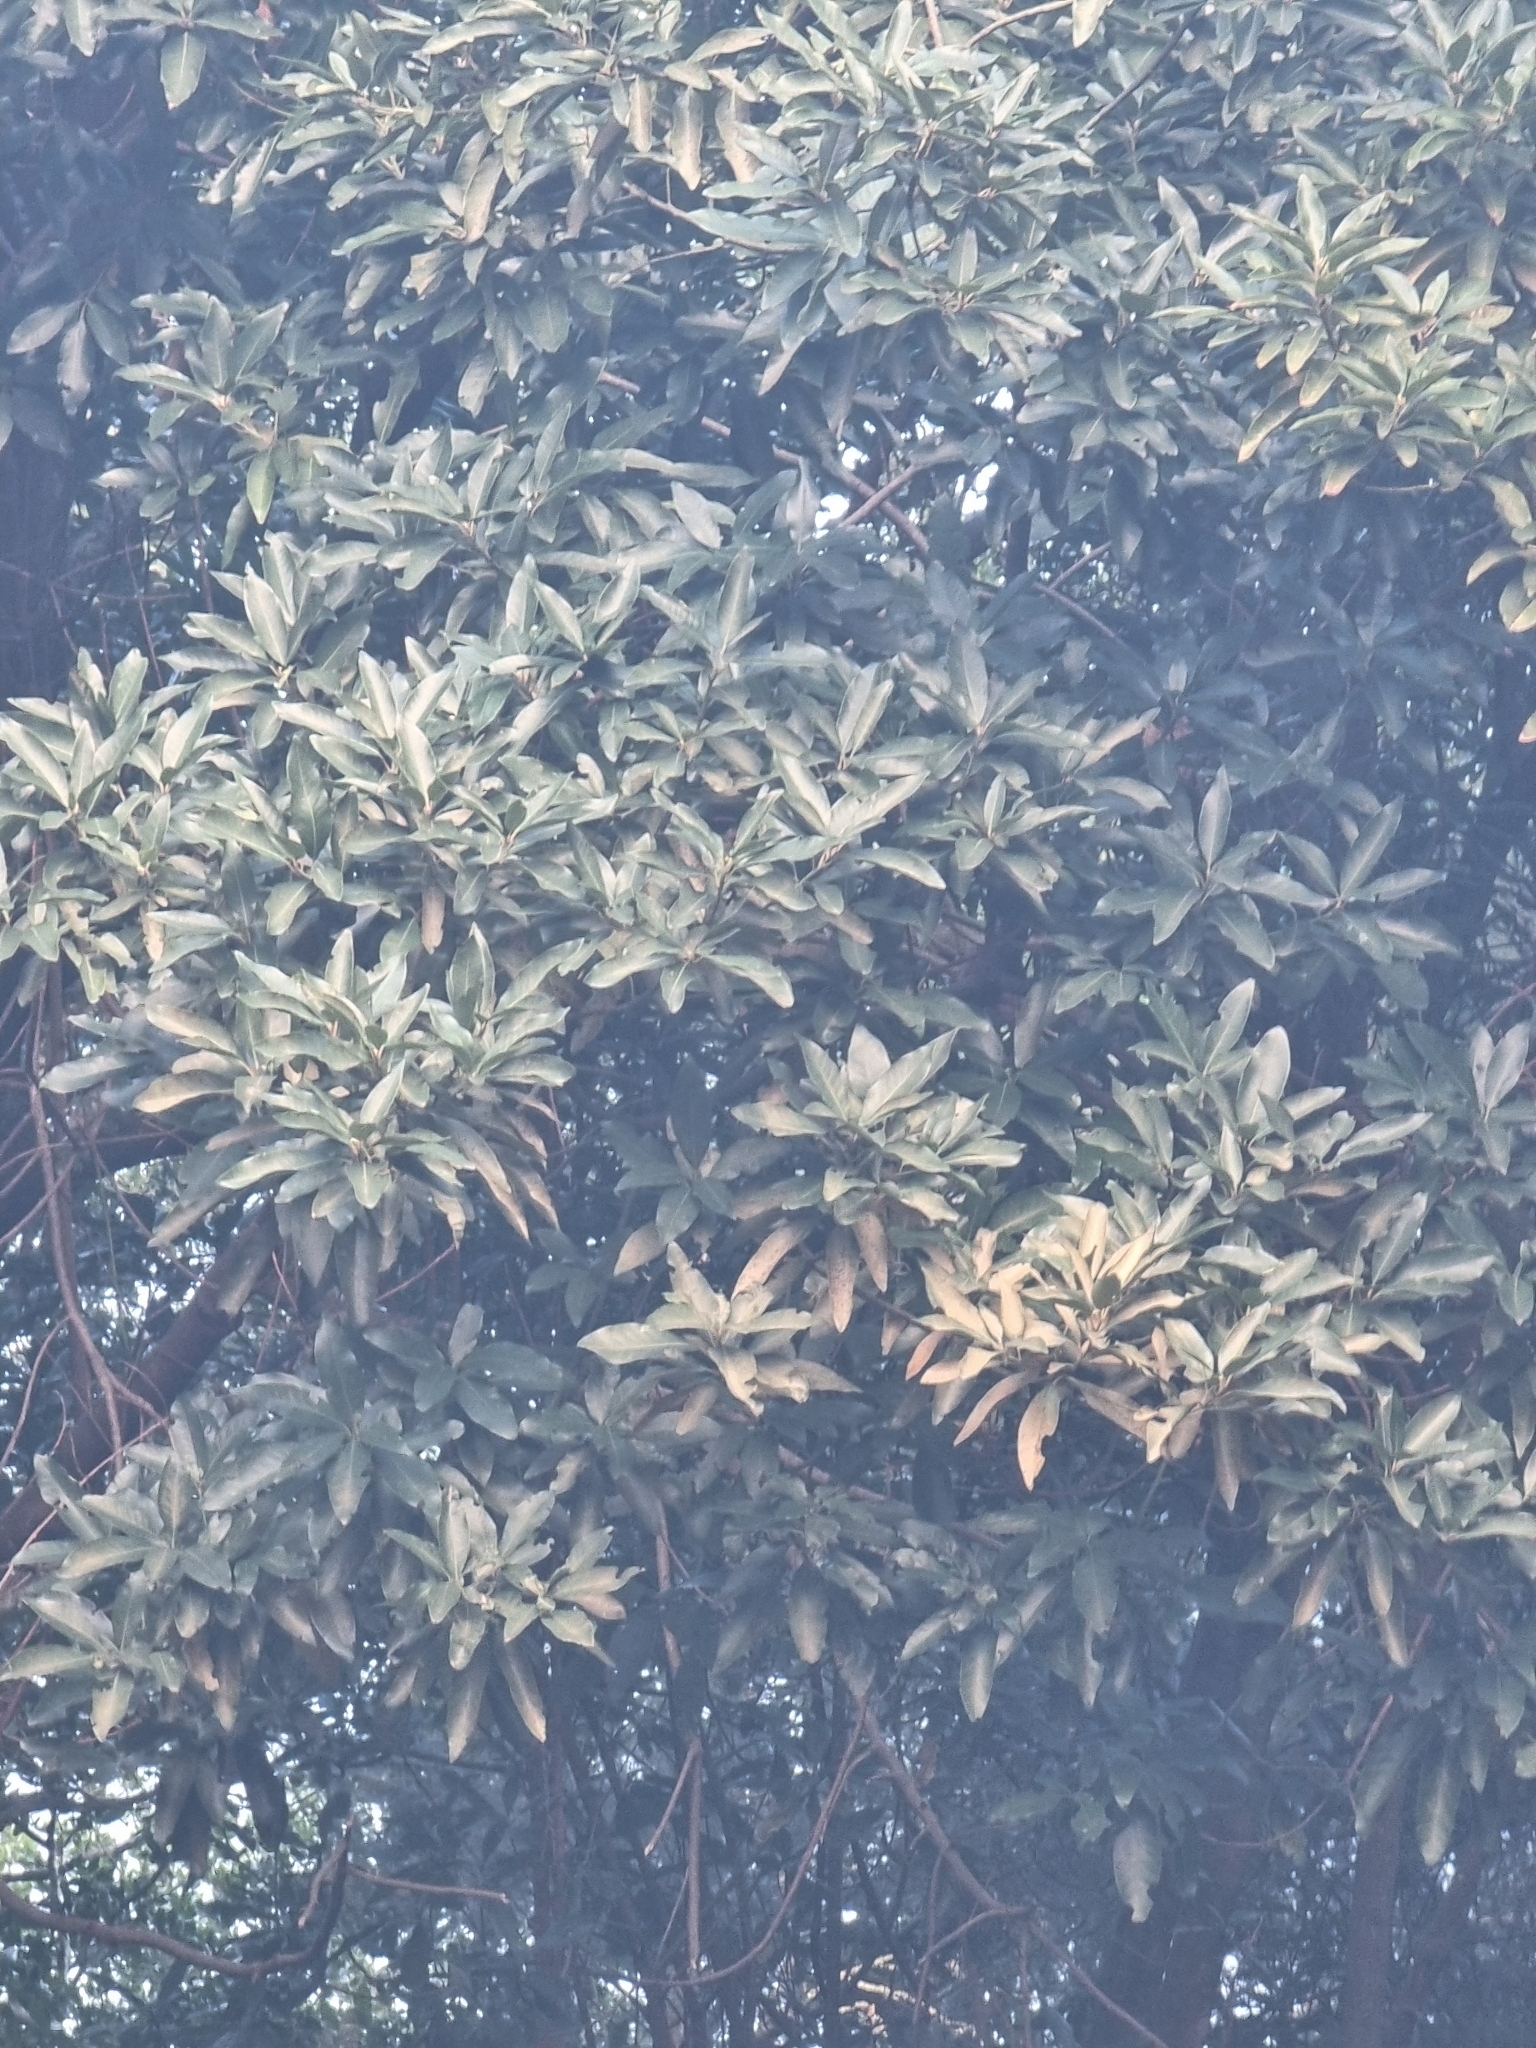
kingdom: Plantae
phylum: Tracheophyta
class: Magnoliopsida
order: Laurales
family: Lauraceae
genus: Persea
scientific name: Persea indica
